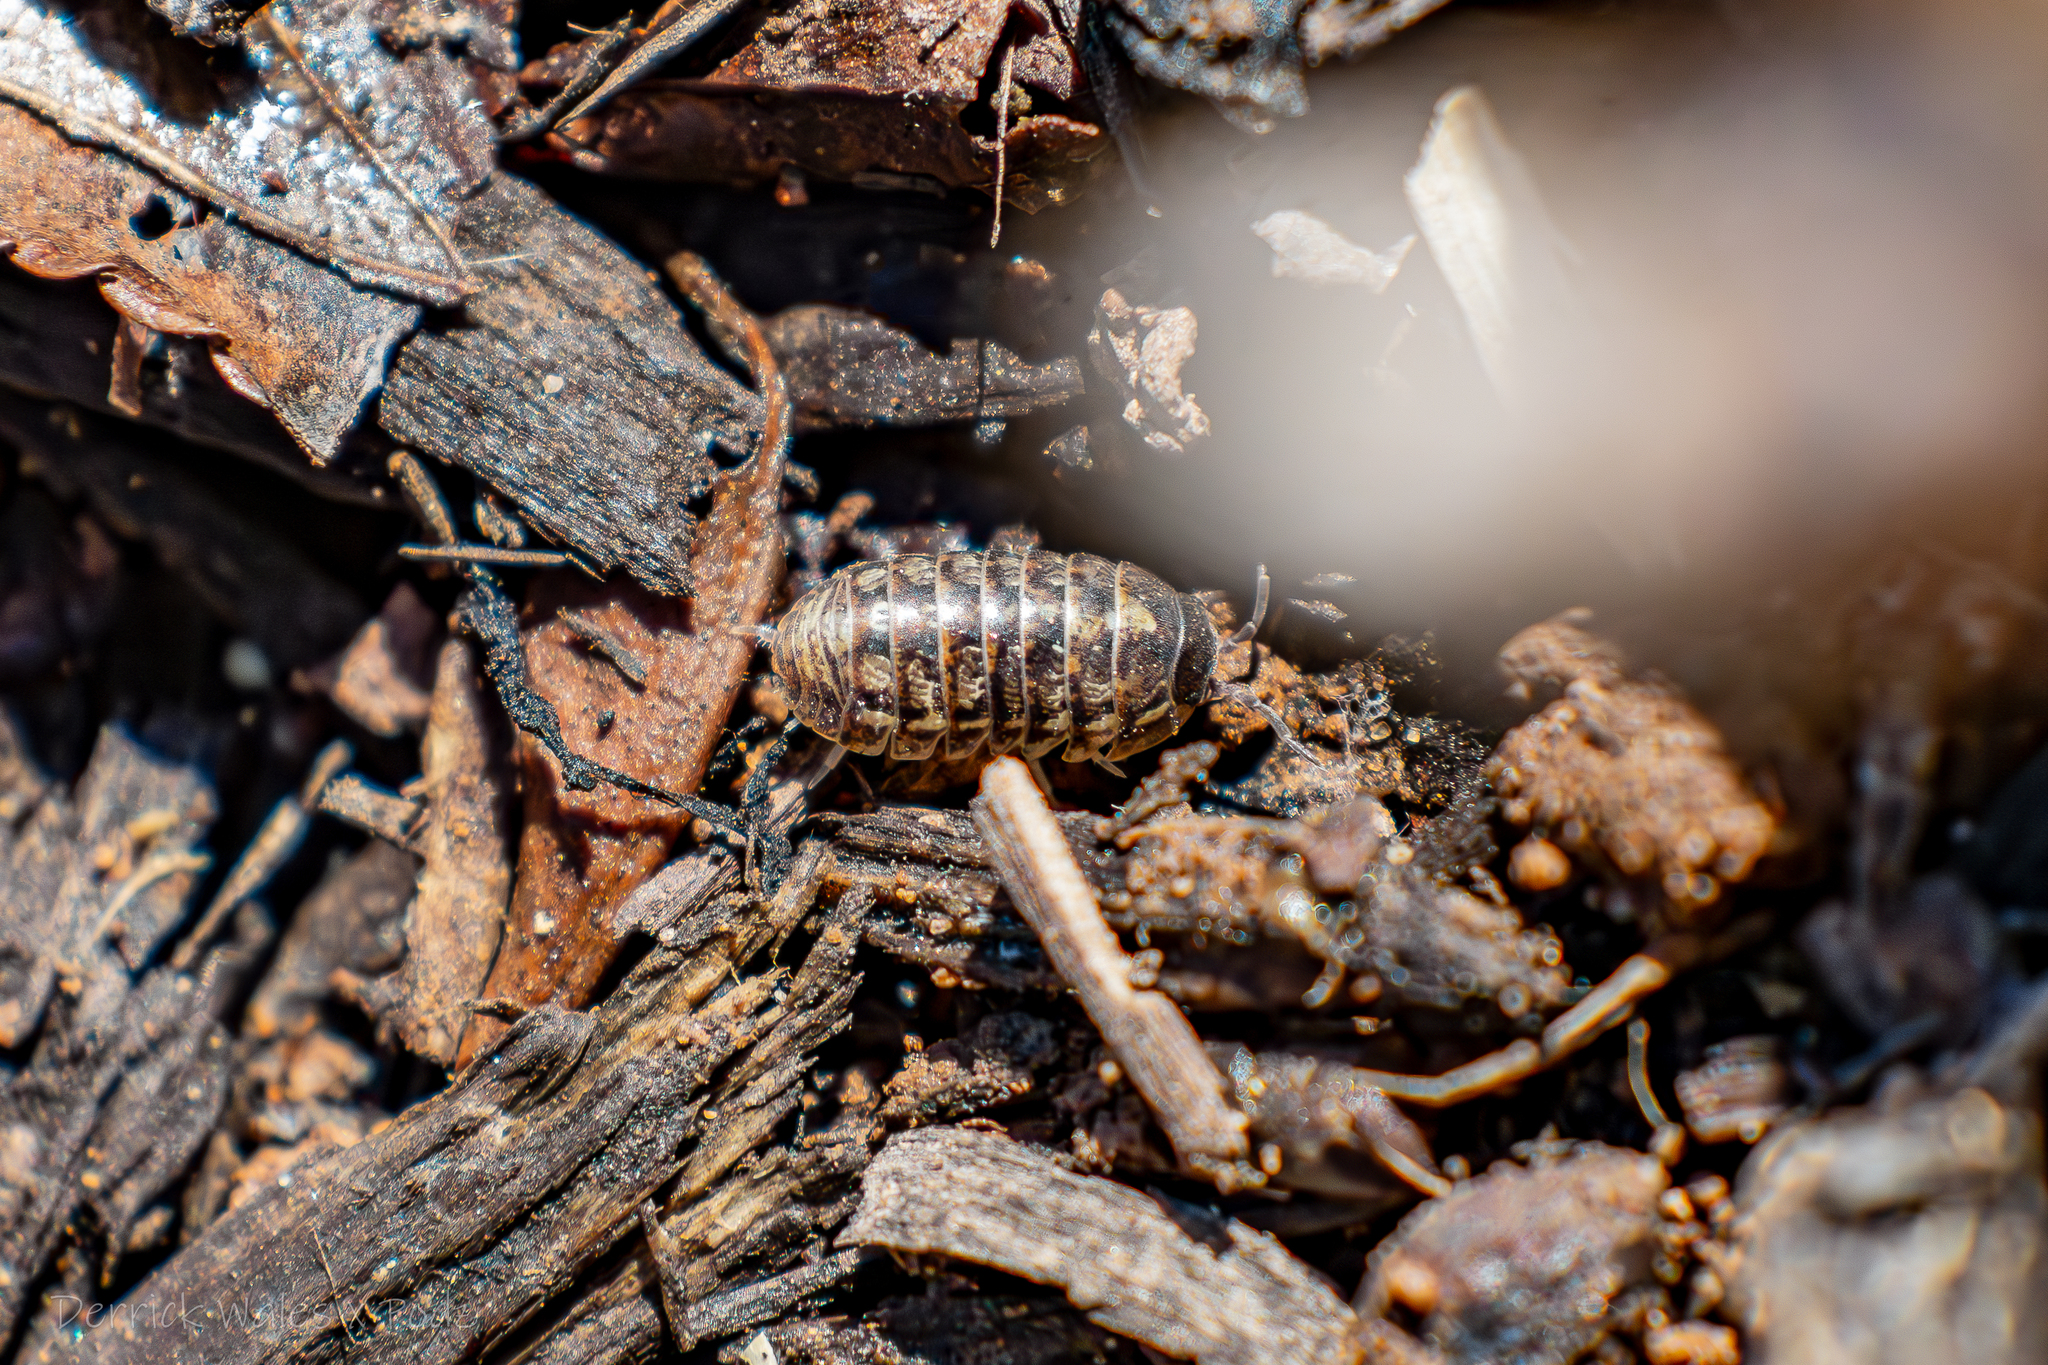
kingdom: Animalia
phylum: Arthropoda
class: Malacostraca
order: Isopoda
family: Armadillidiidae
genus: Armadillidium
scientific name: Armadillidium vulgare
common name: Common pill woodlouse
